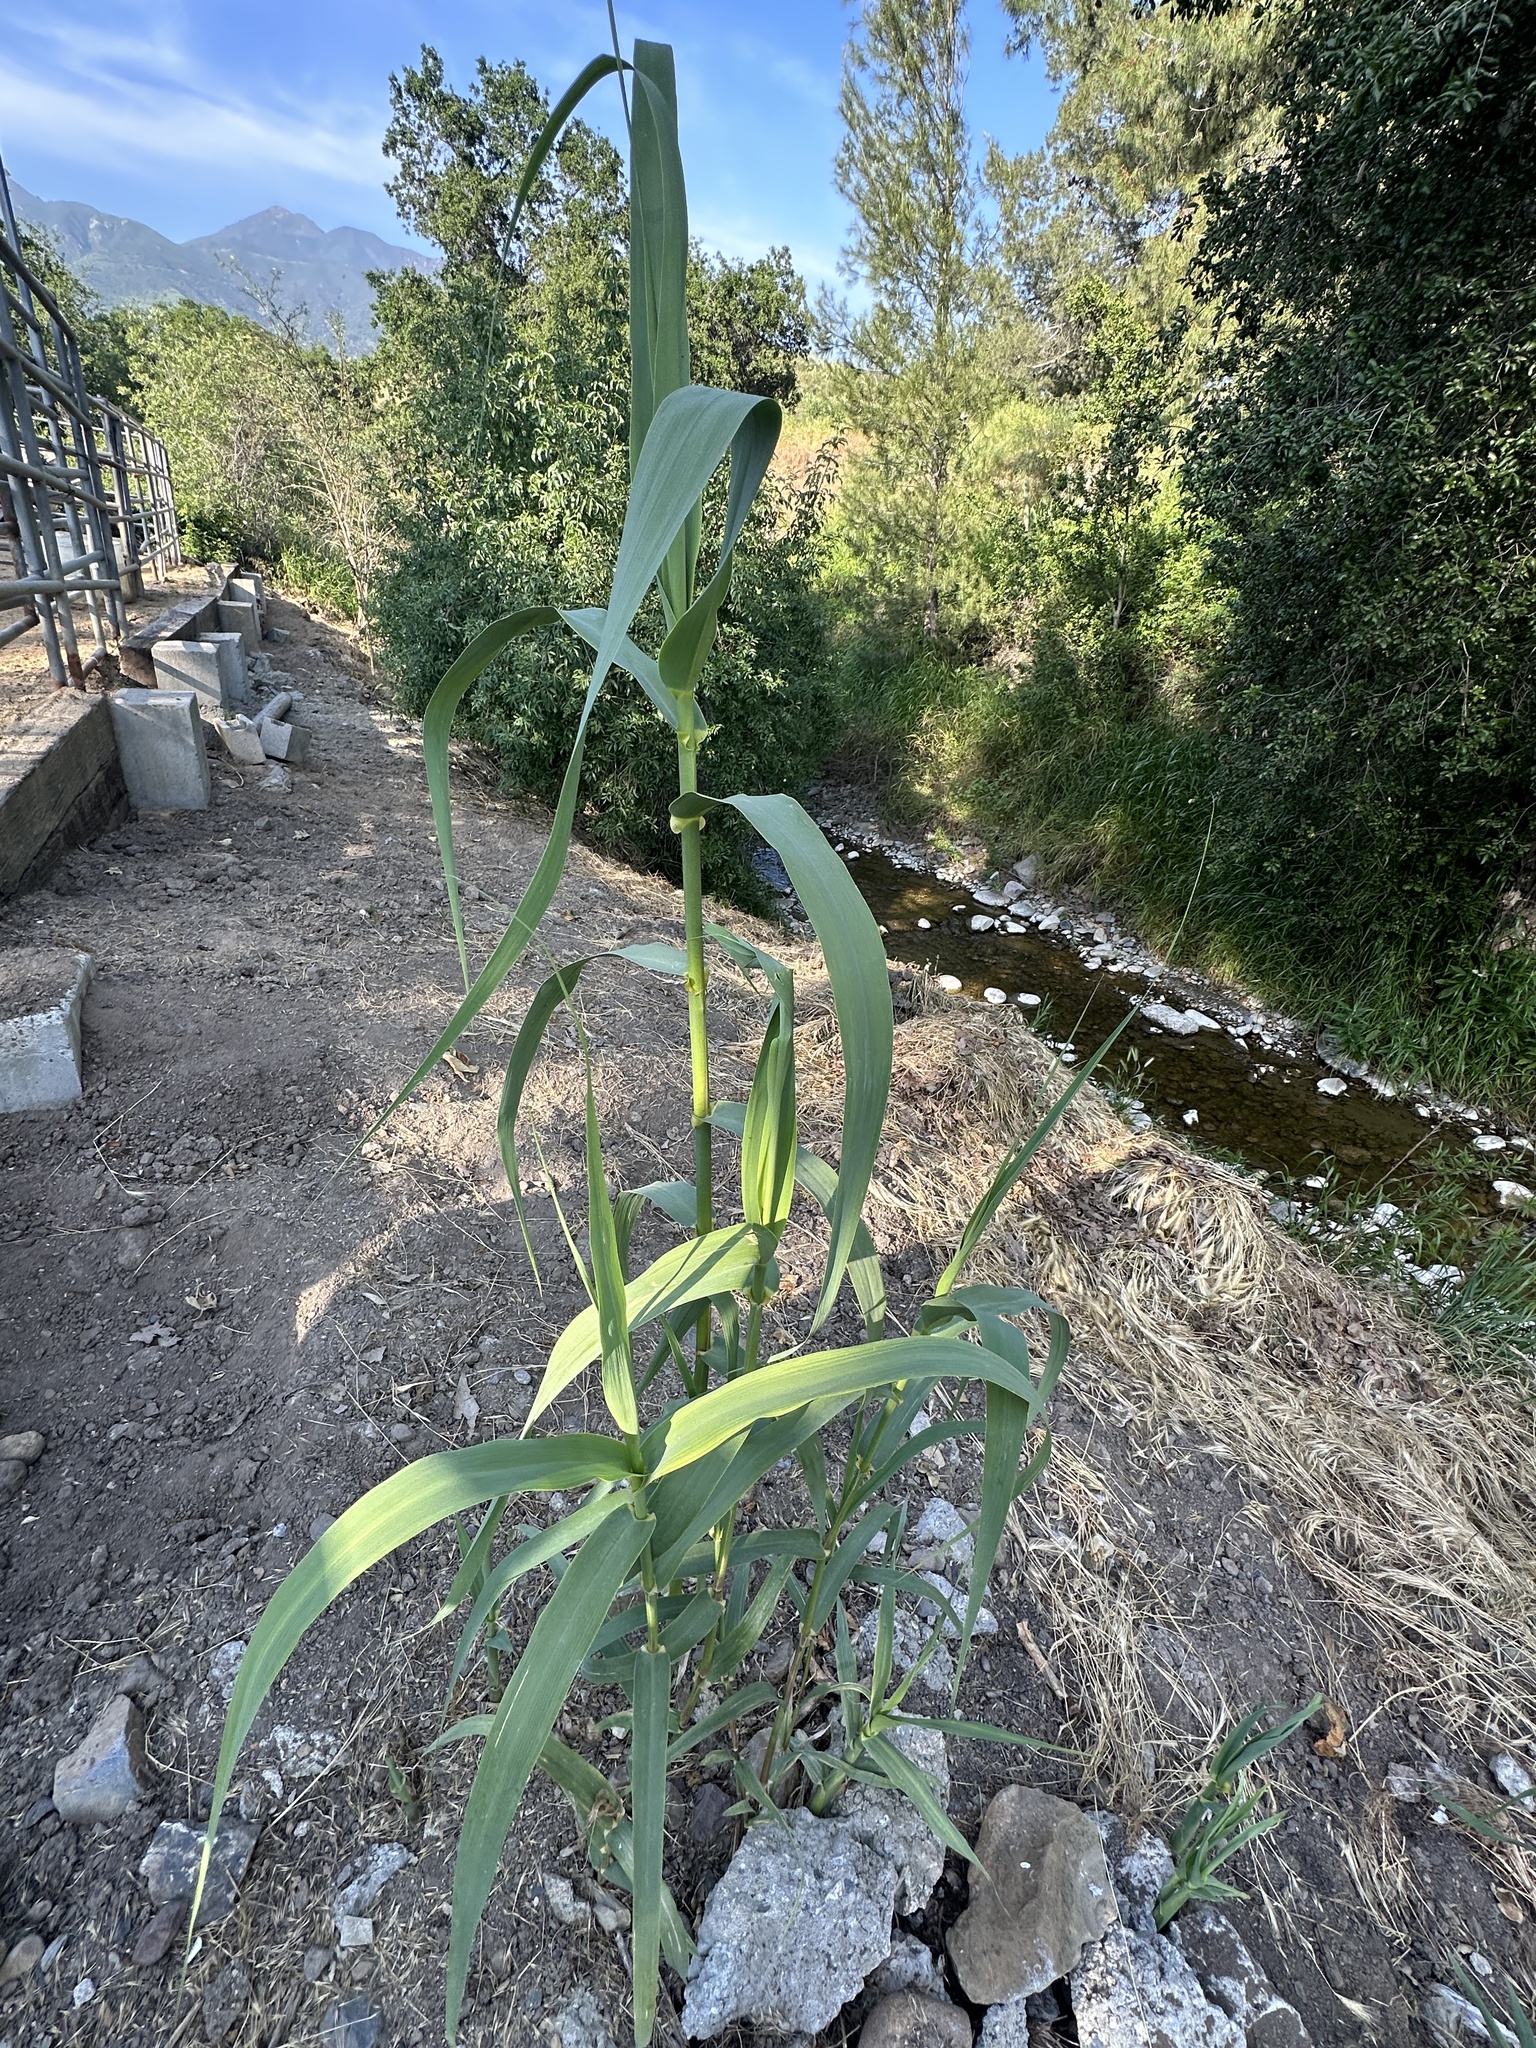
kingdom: Plantae
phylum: Tracheophyta
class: Liliopsida
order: Poales
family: Poaceae
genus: Arundo
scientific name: Arundo donax
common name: Giant reed
